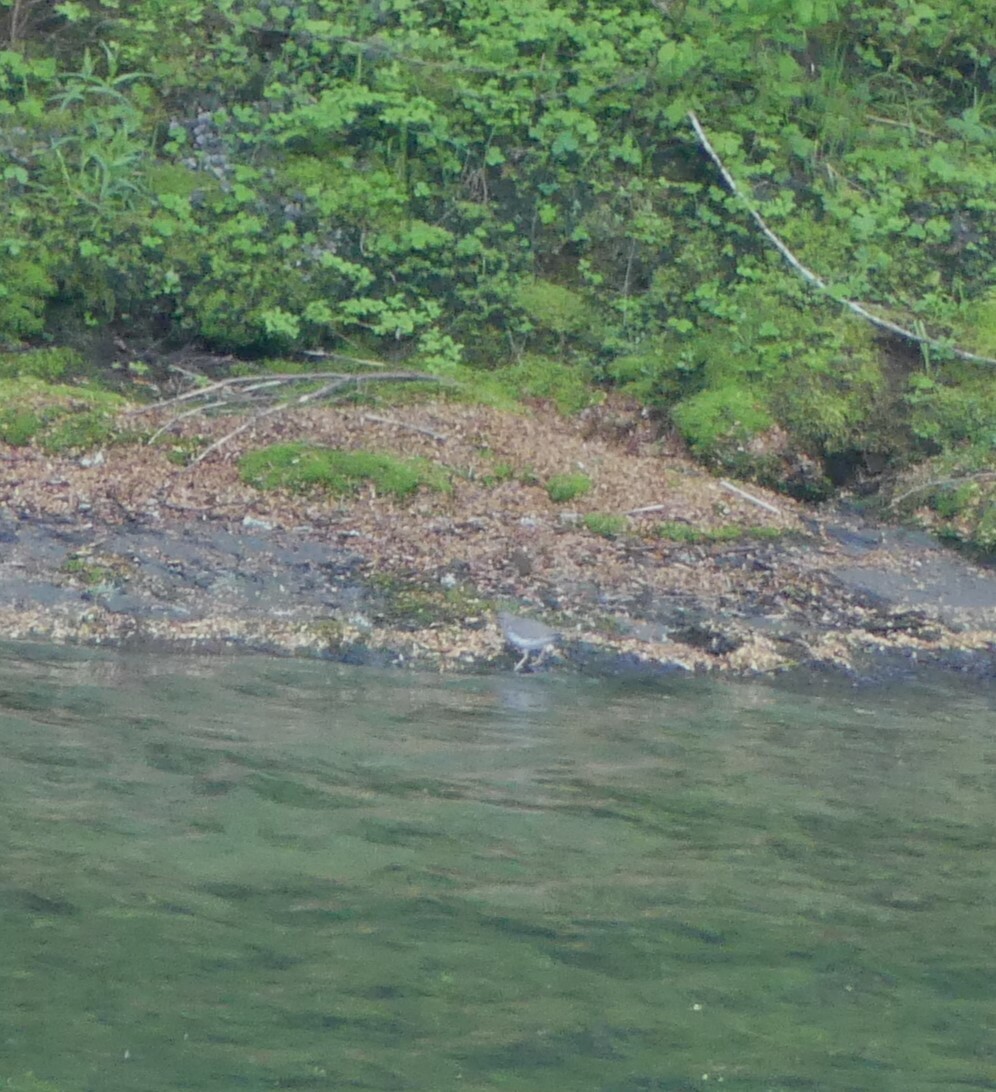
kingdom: Animalia
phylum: Chordata
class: Aves
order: Charadriiformes
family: Scolopacidae
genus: Actitis
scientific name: Actitis macularius
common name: Spotted sandpiper
